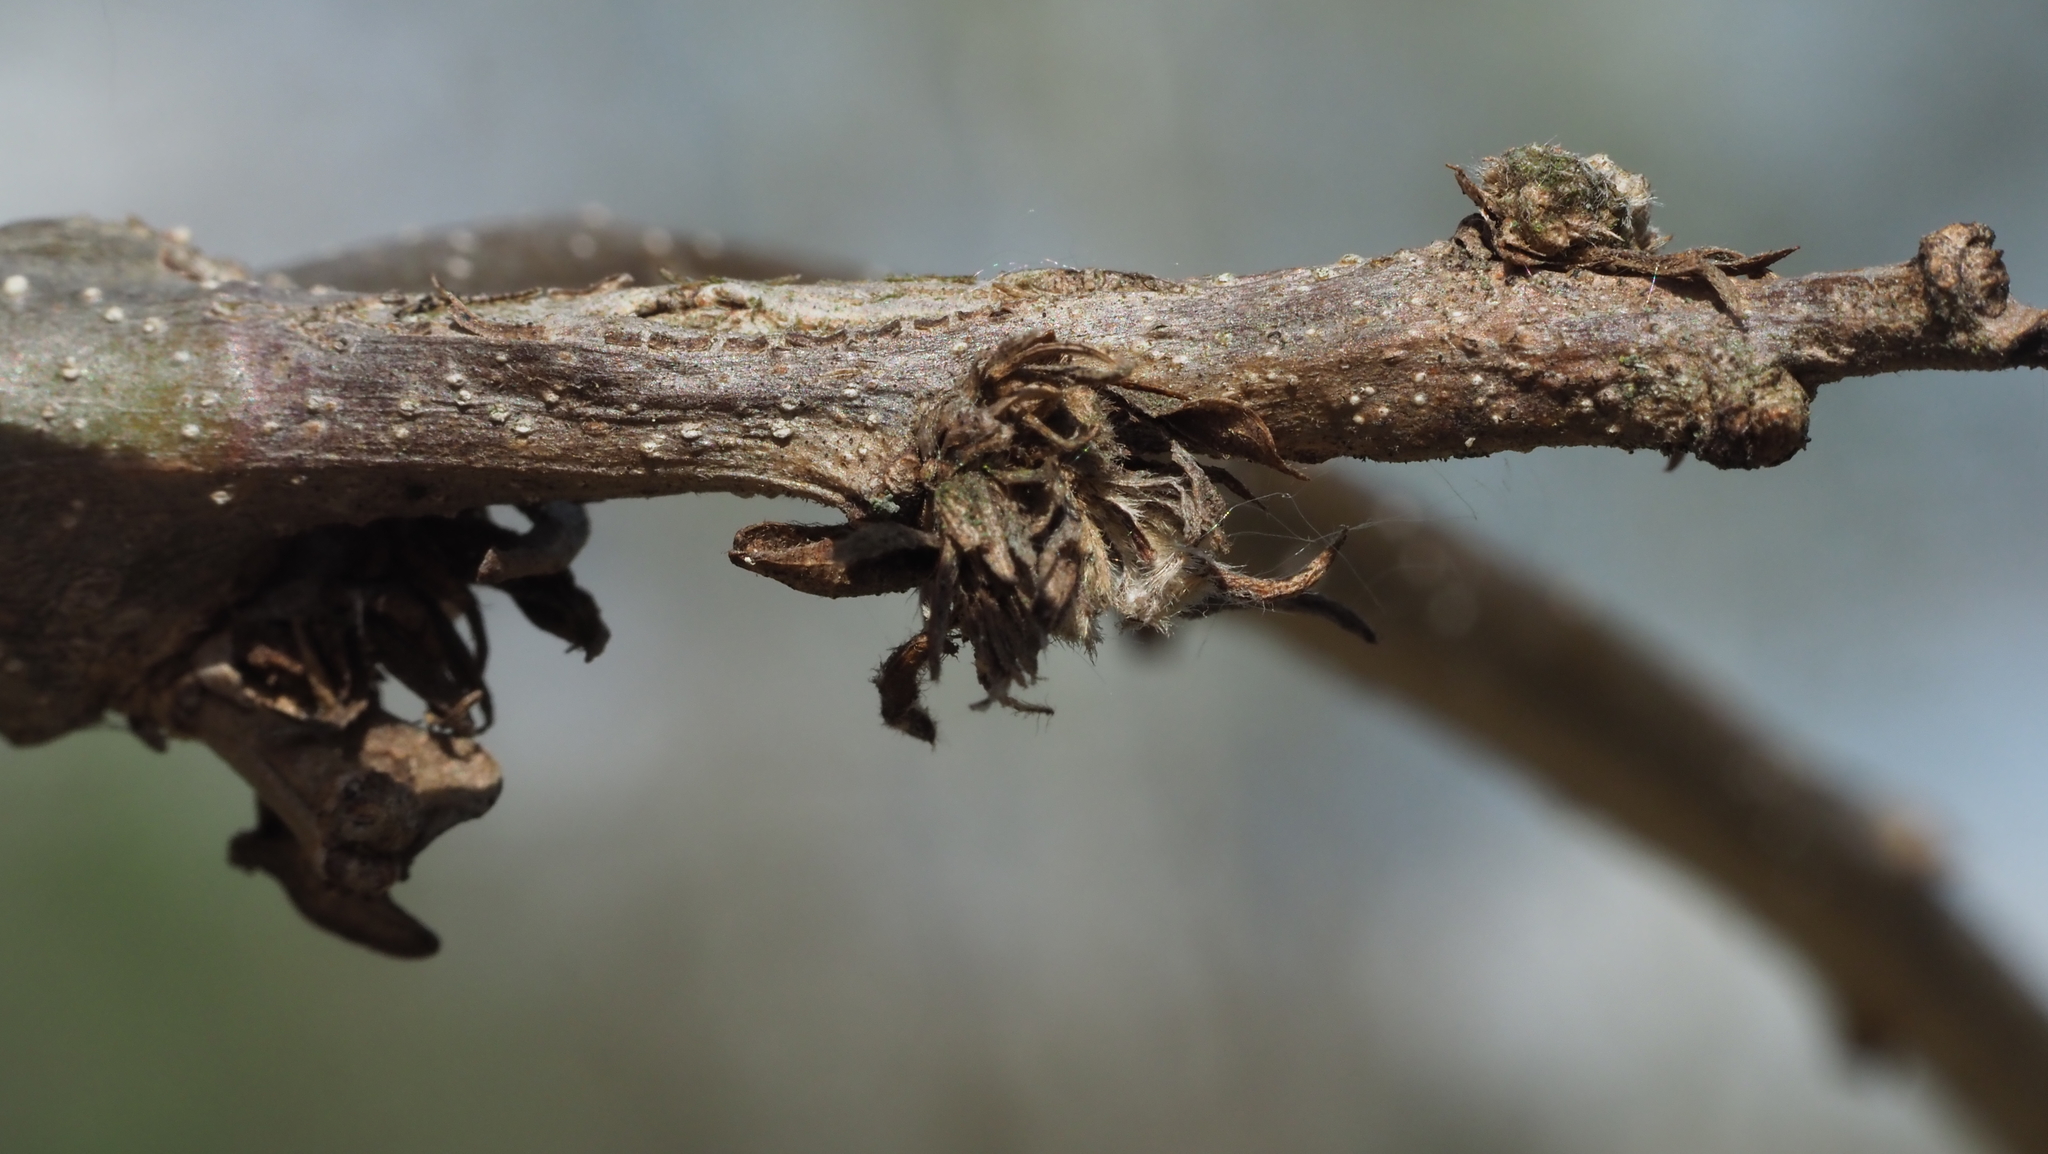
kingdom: Animalia
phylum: Arthropoda
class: Insecta
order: Hymenoptera
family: Cynipidae
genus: Andricus
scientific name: Andricus
